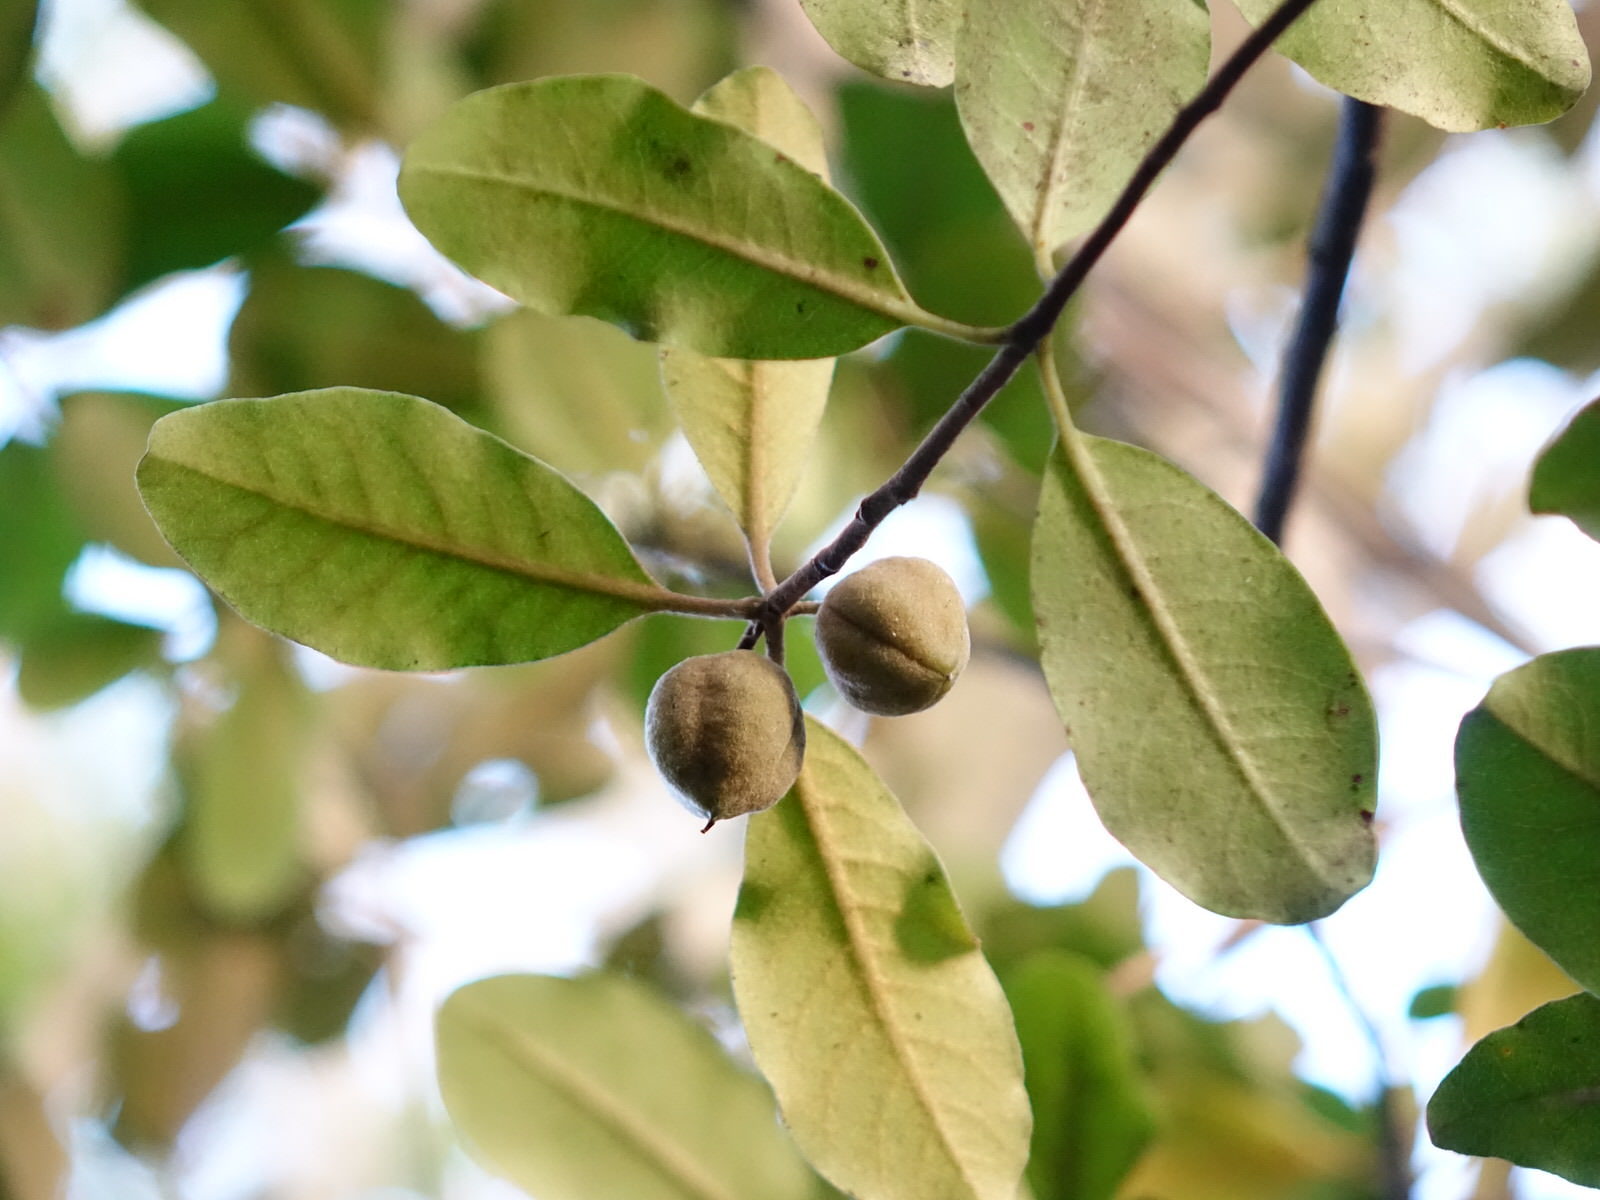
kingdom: Plantae
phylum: Tracheophyta
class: Magnoliopsida
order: Apiales
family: Pittosporaceae
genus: Pittosporum
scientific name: Pittosporum ellipticum
